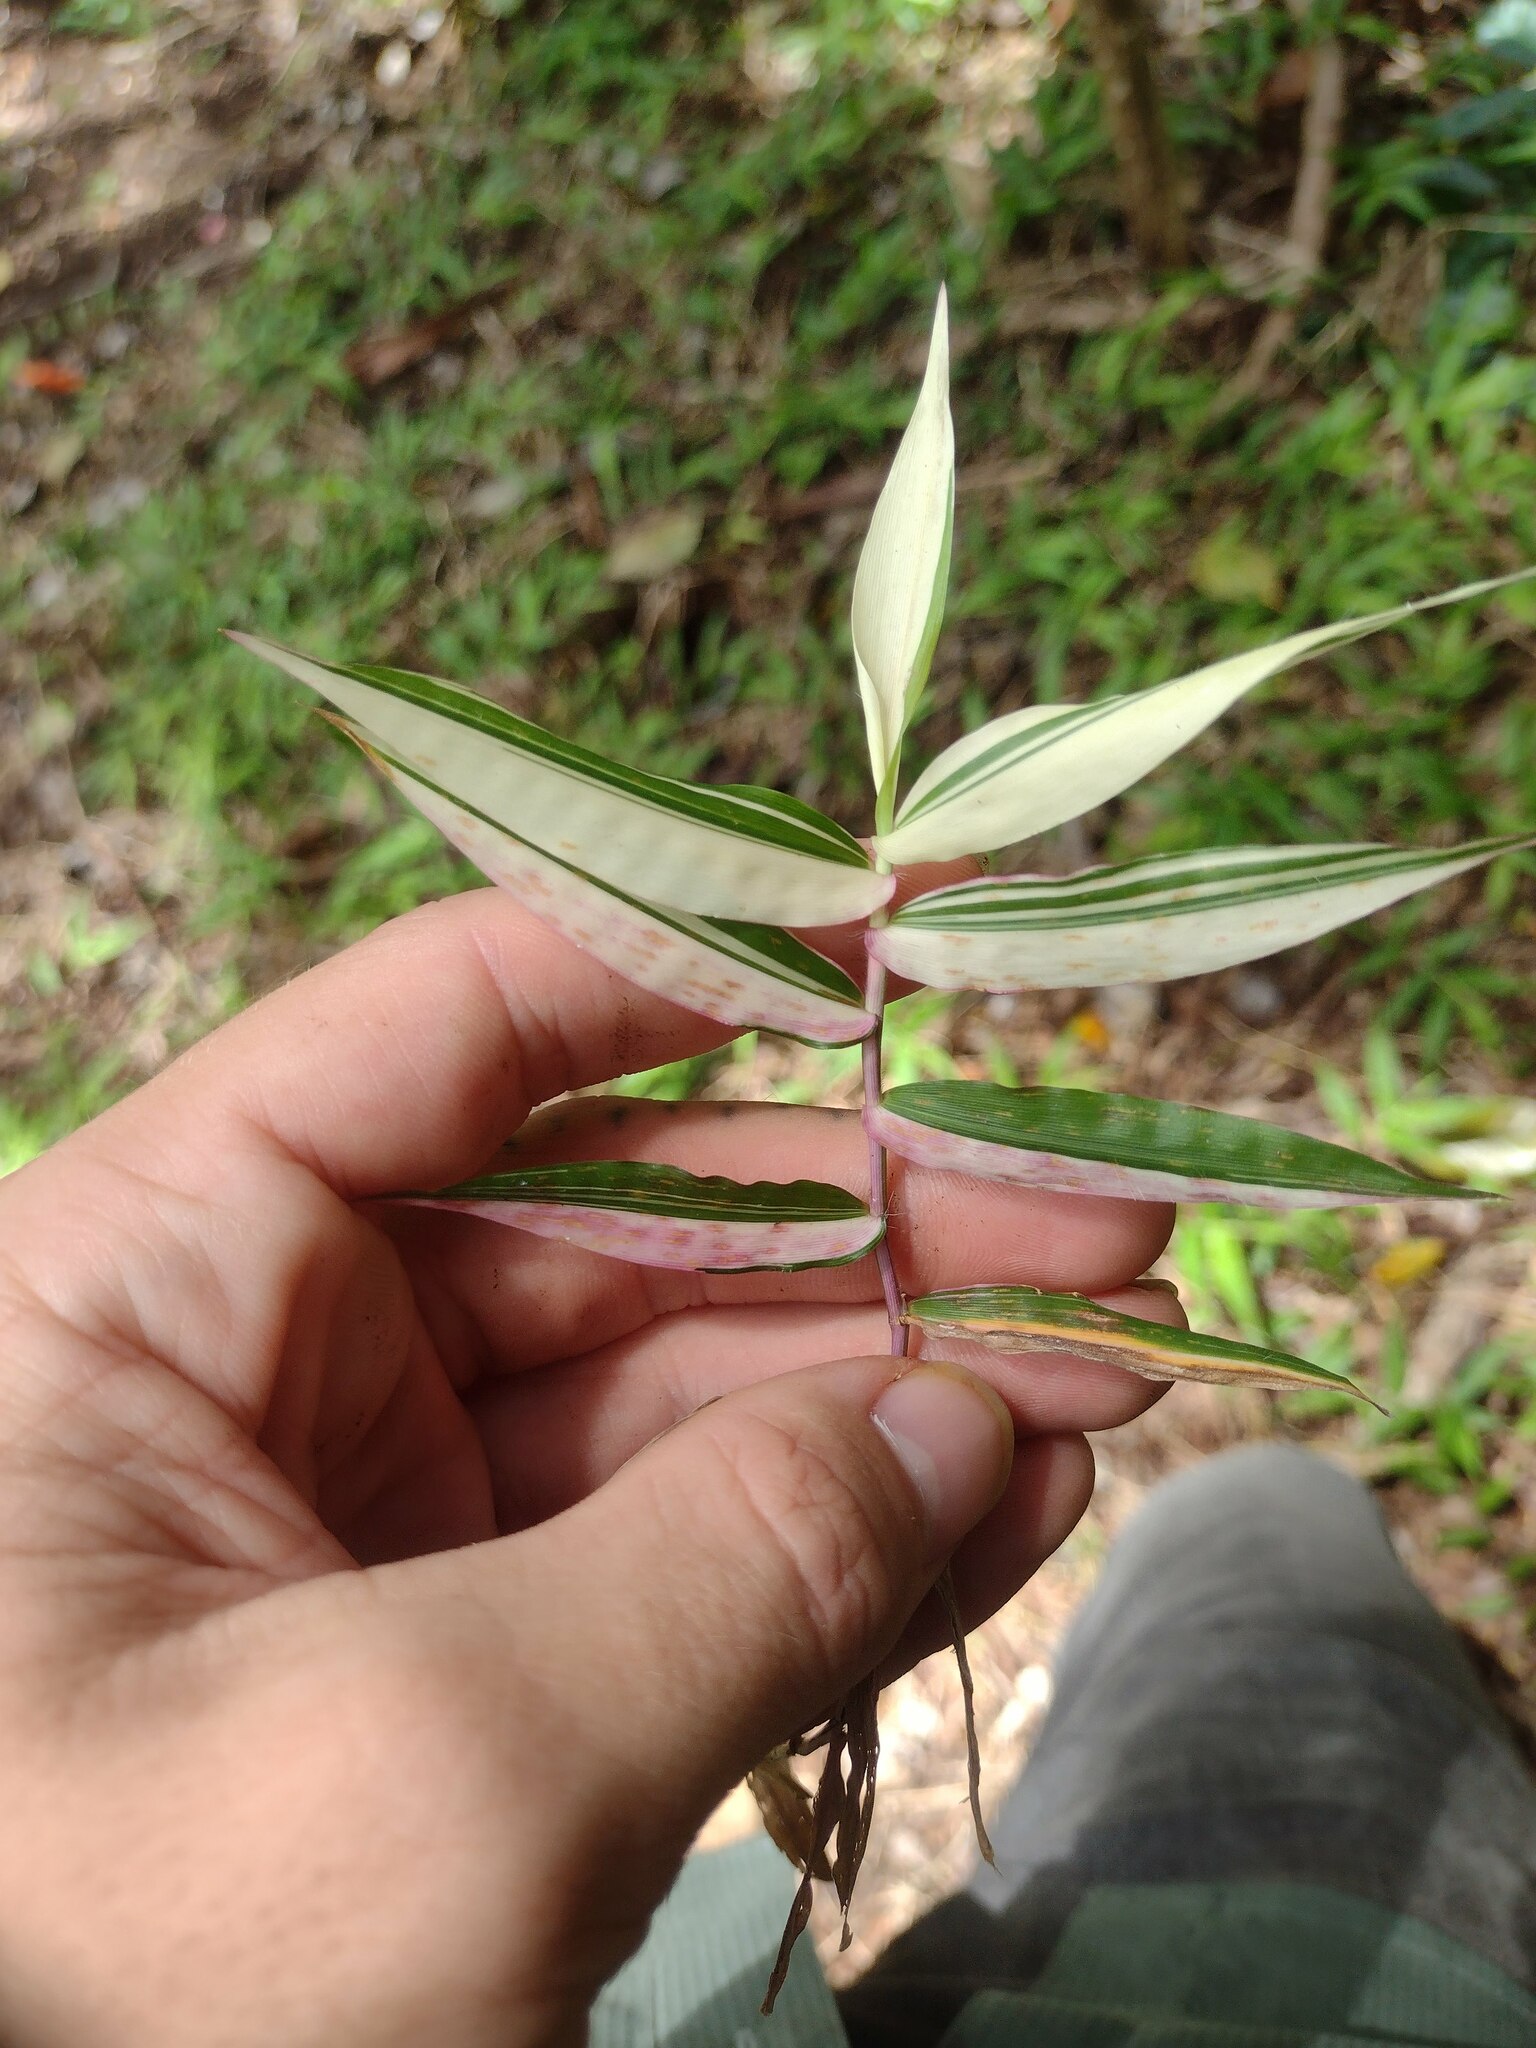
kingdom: Plantae
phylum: Tracheophyta
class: Liliopsida
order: Poales
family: Poaceae
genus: Oplismenus
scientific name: Oplismenus hirtellus
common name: Basketgrass
